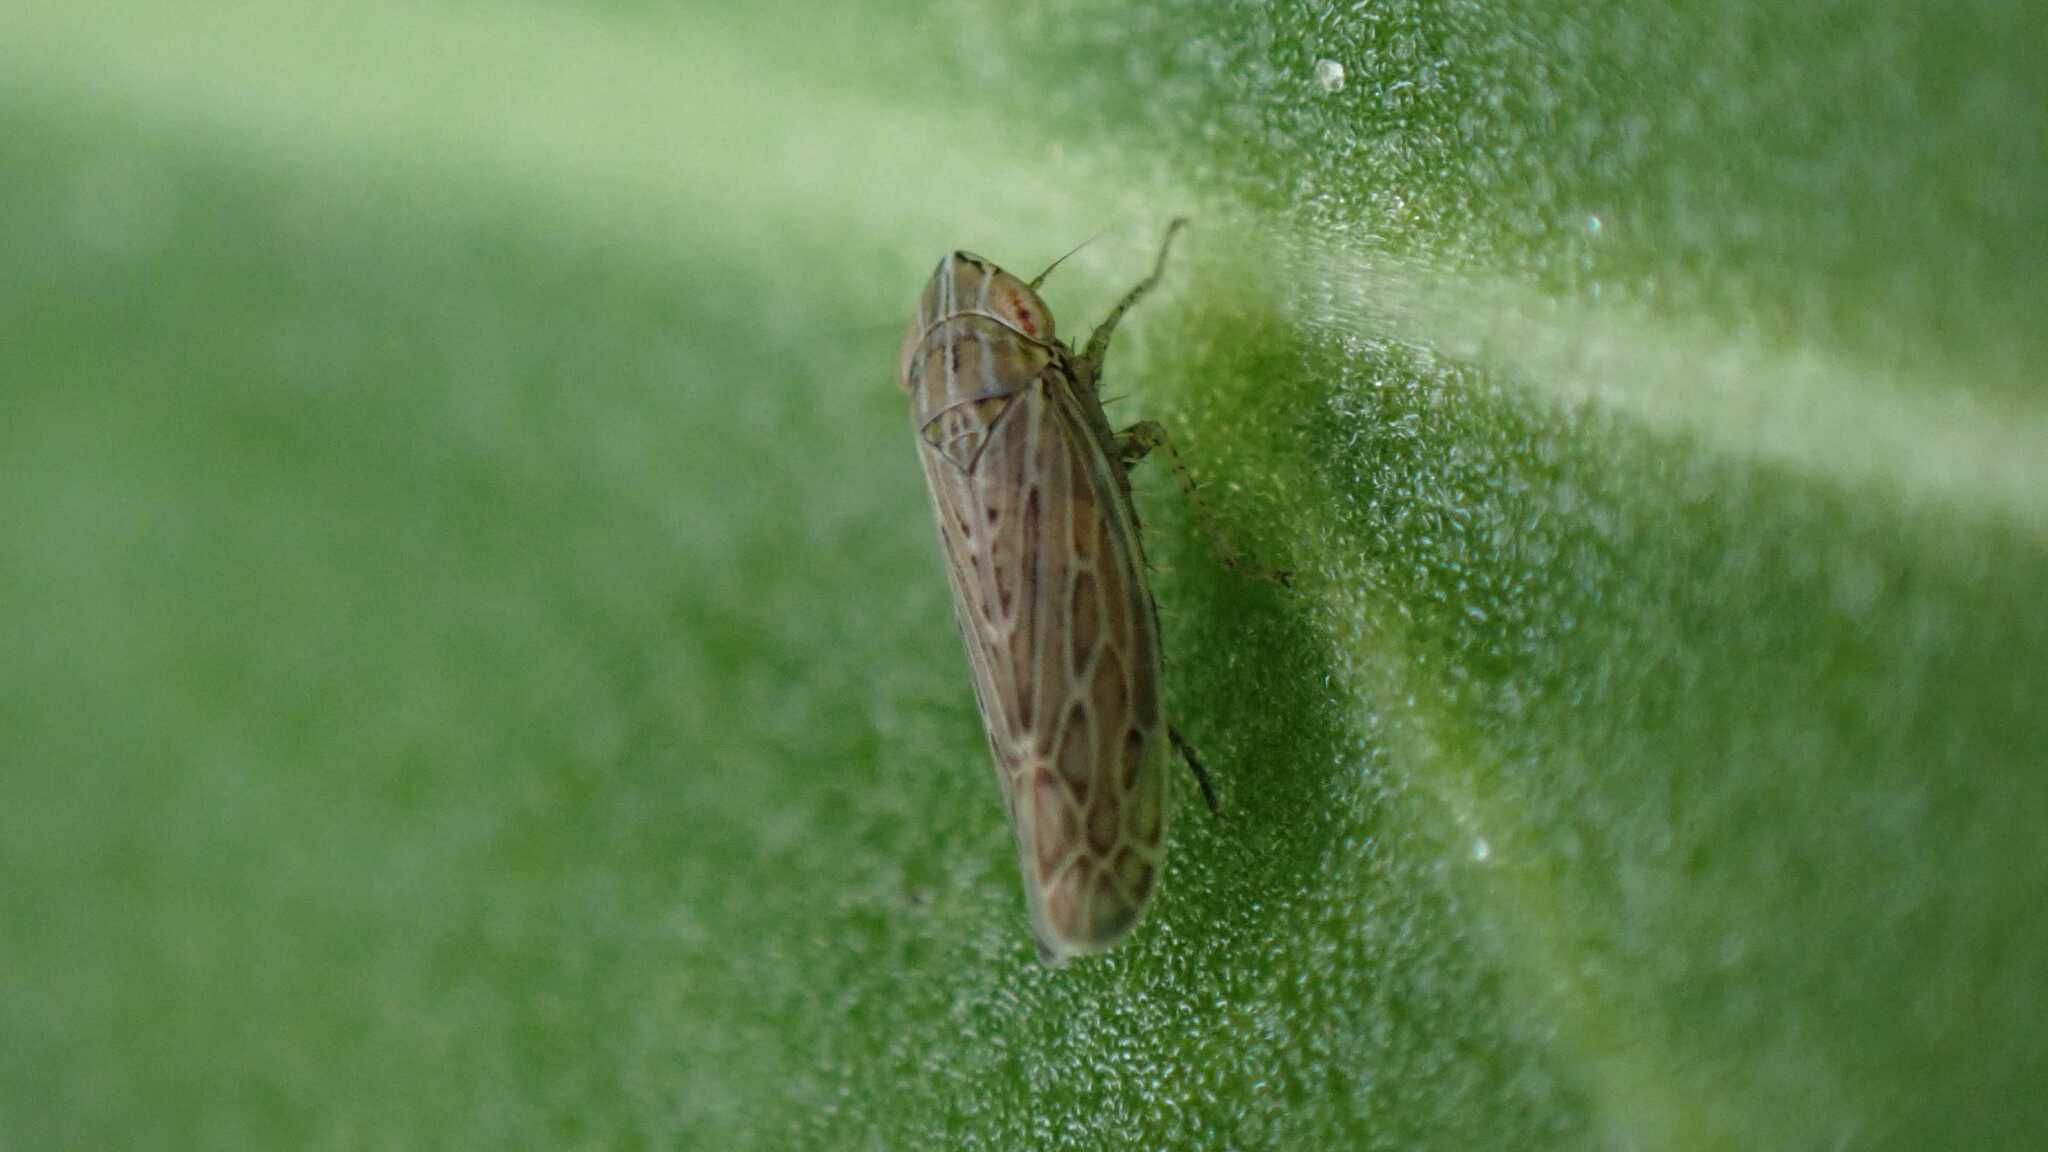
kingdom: Animalia
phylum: Arthropoda
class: Insecta
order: Hemiptera
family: Cicadellidae
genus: Arocephalus
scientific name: Arocephalus longiceps
